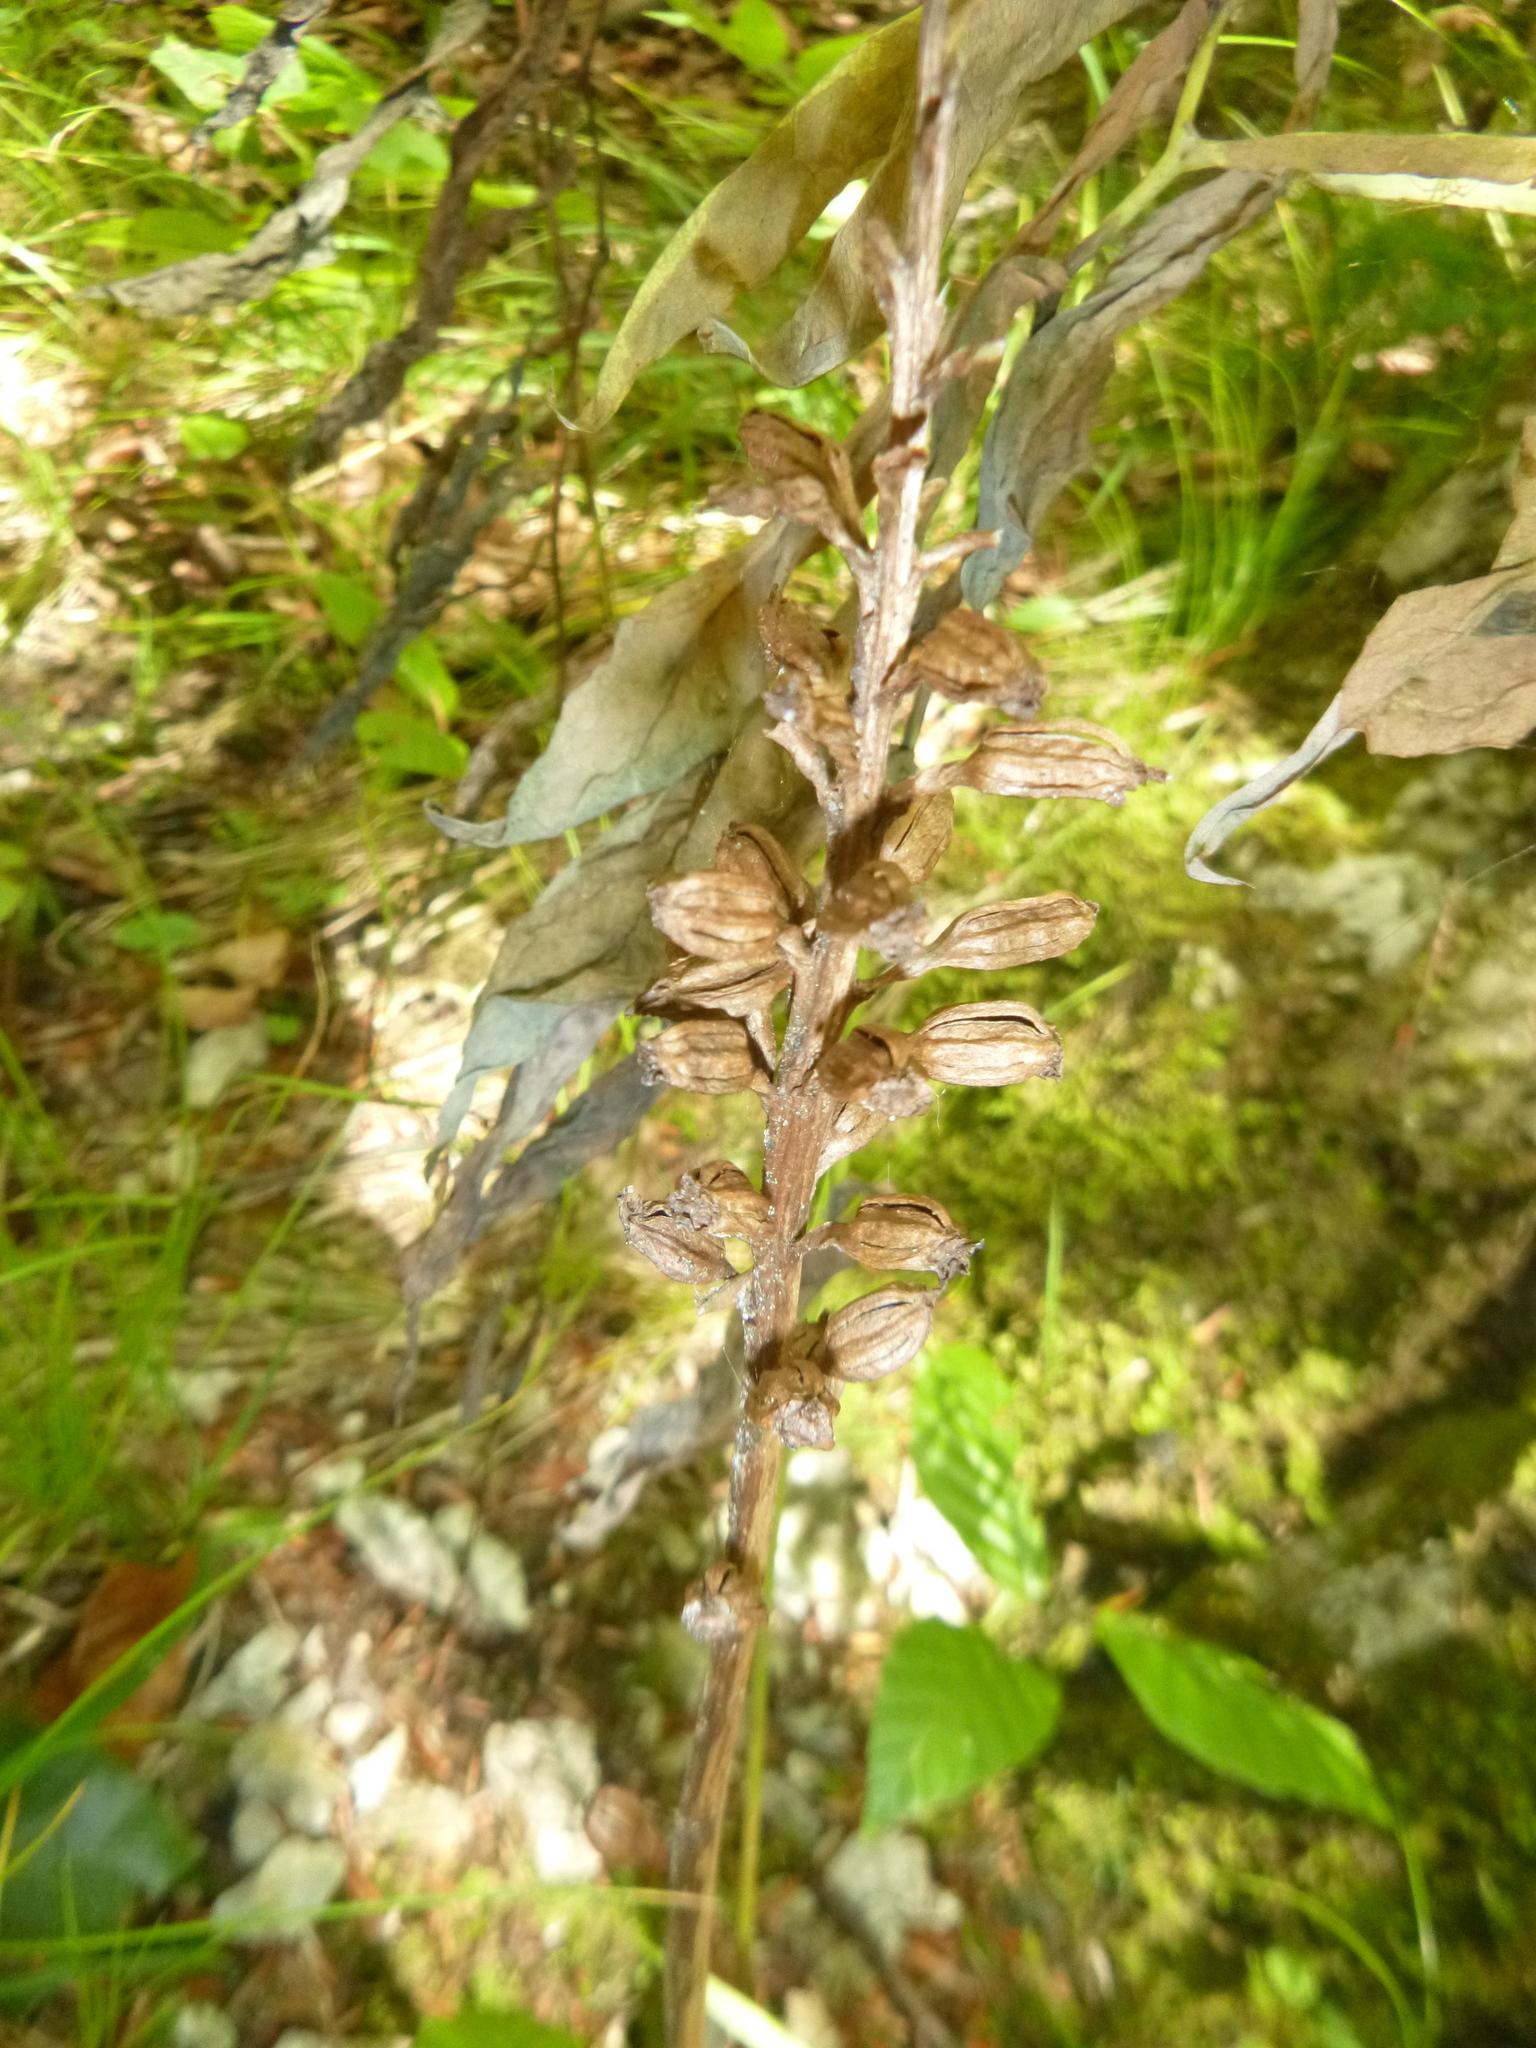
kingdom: Plantae
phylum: Tracheophyta
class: Liliopsida
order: Asparagales
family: Orchidaceae
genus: Neottia
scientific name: Neottia nidus-avis
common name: Bird's-nest orchid
